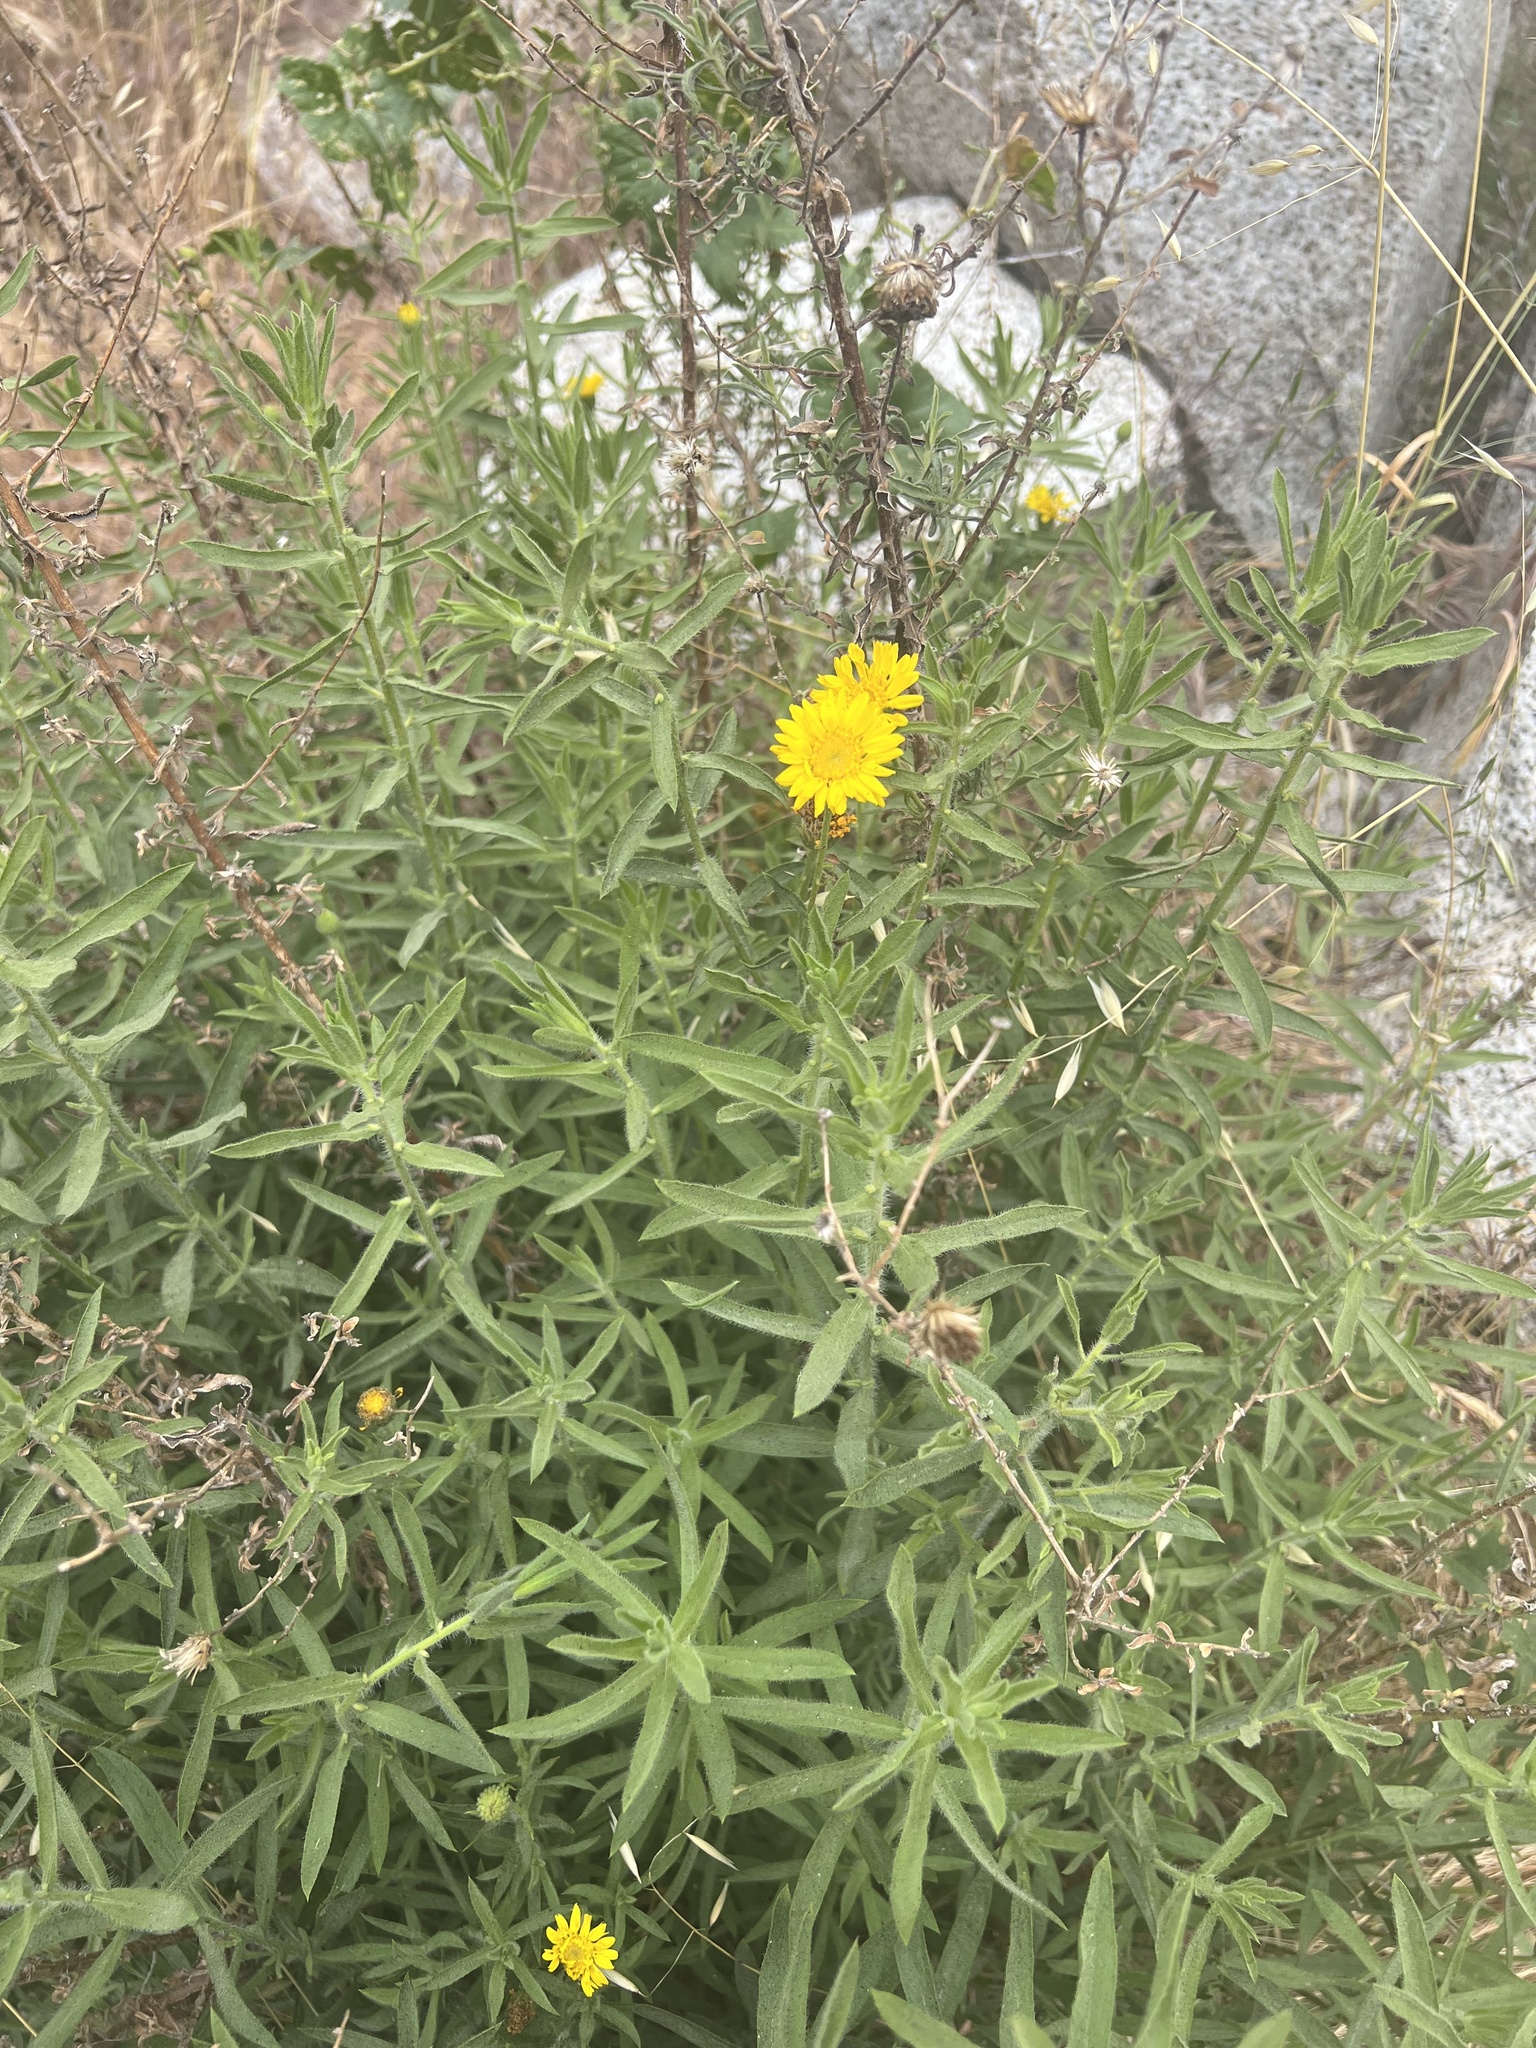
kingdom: Plantae
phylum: Tracheophyta
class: Magnoliopsida
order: Asterales
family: Asteraceae
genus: Heterotheca
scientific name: Heterotheca shevockii
